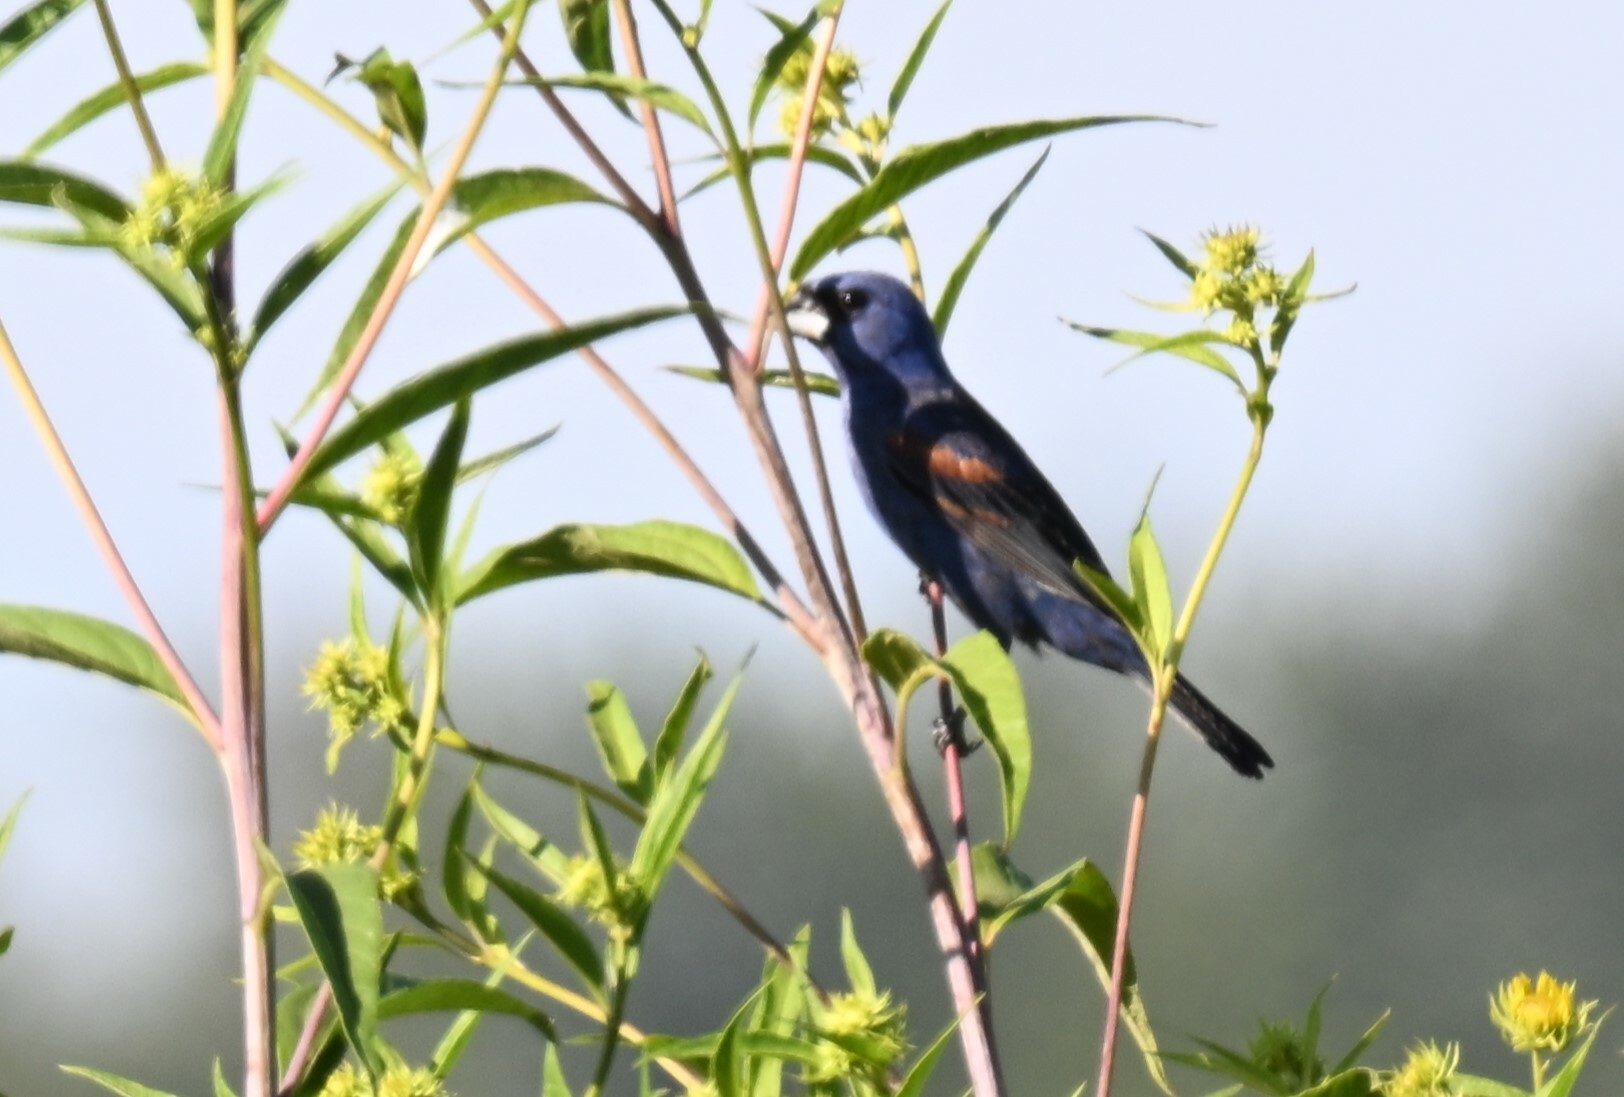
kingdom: Animalia
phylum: Chordata
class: Aves
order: Passeriformes
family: Cardinalidae
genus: Passerina
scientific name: Passerina caerulea
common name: Blue grosbeak
